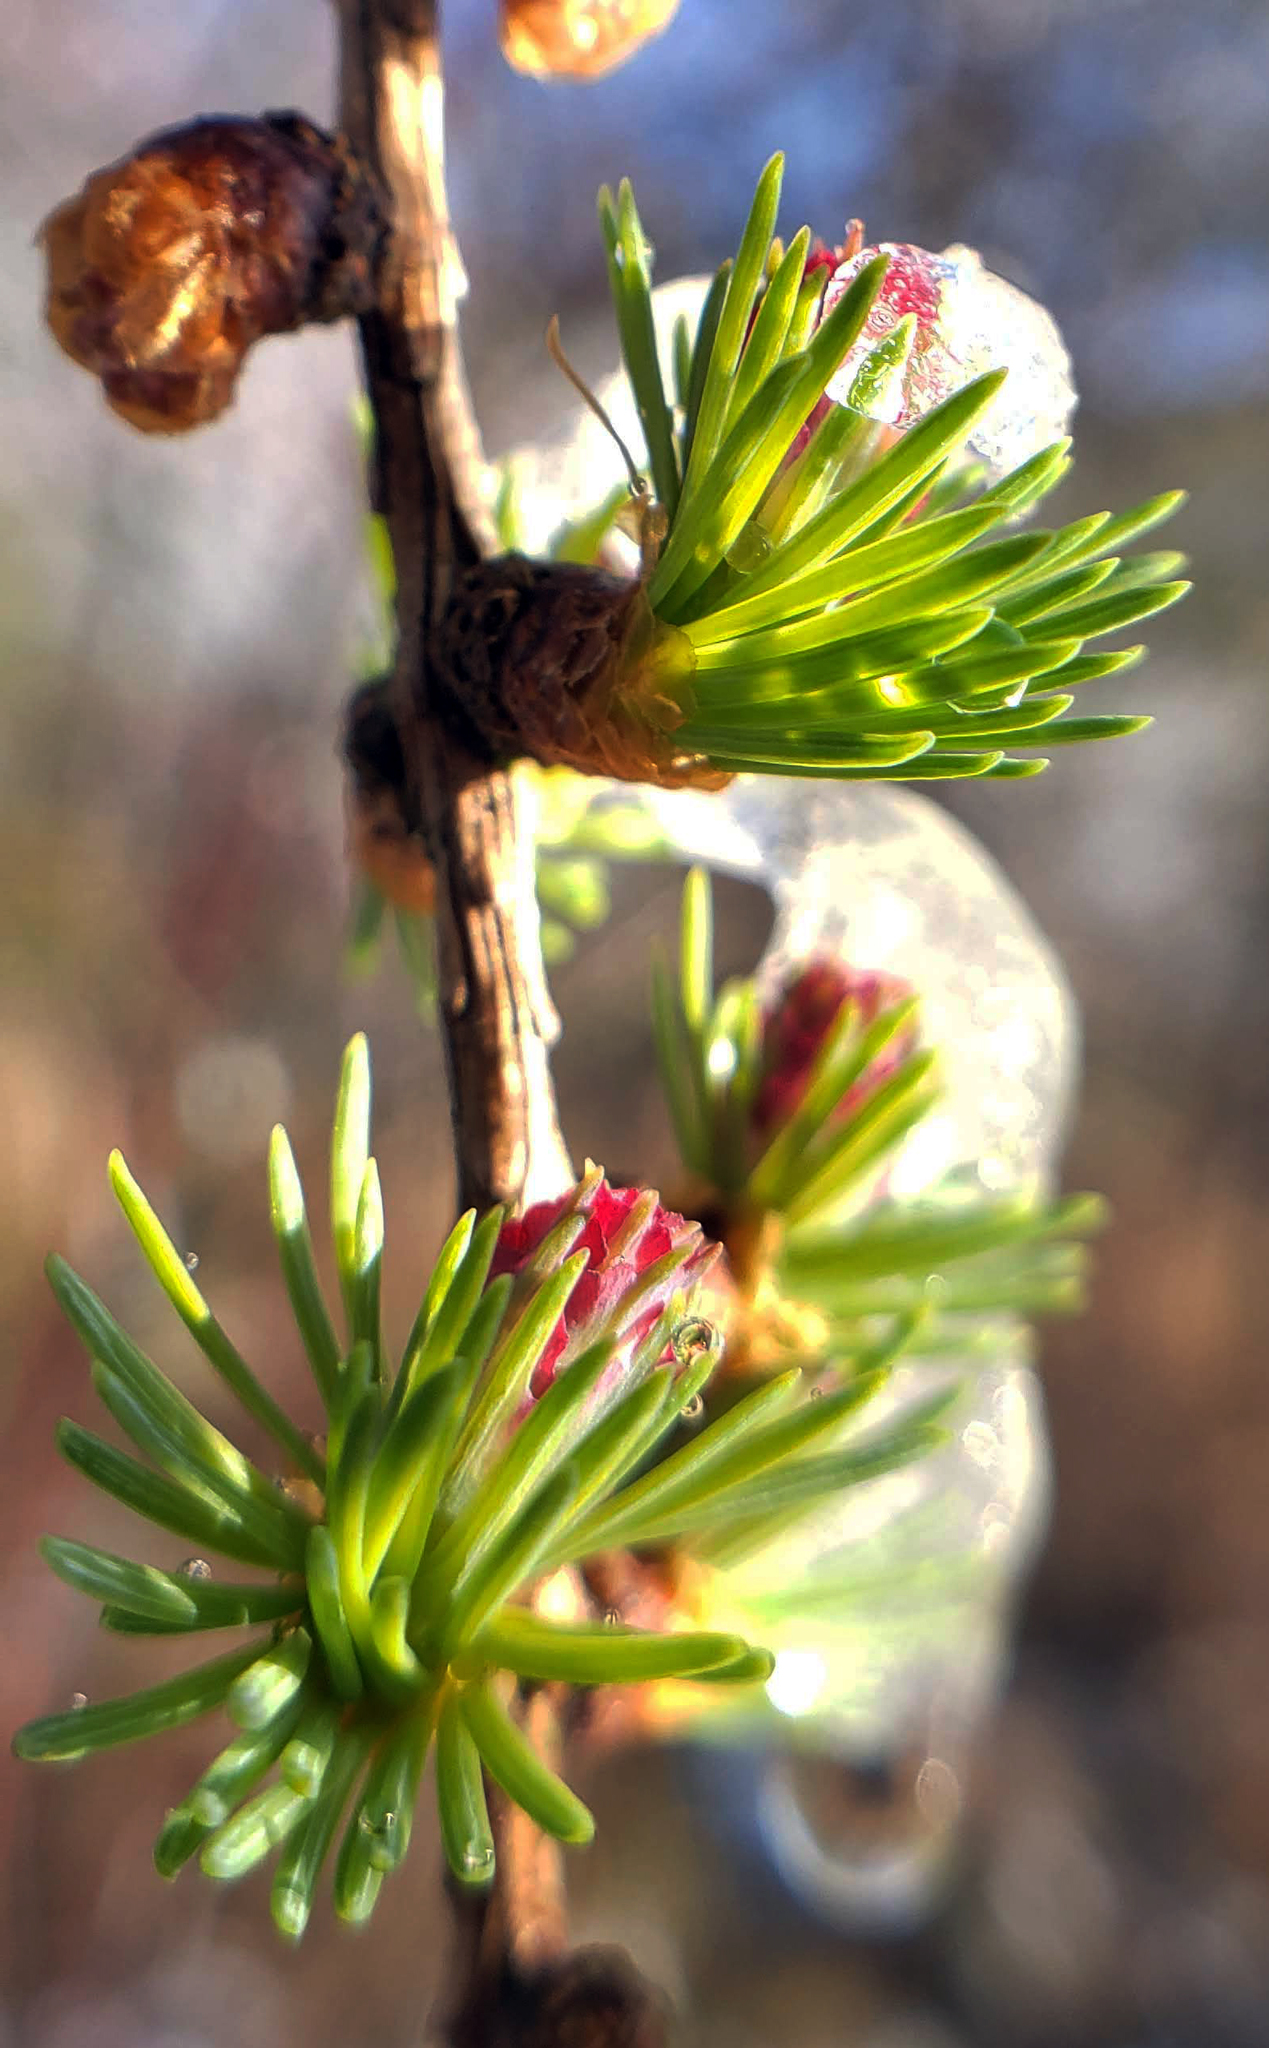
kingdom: Plantae
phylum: Tracheophyta
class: Pinopsida
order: Pinales
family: Pinaceae
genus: Larix
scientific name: Larix laricina
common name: American larch
